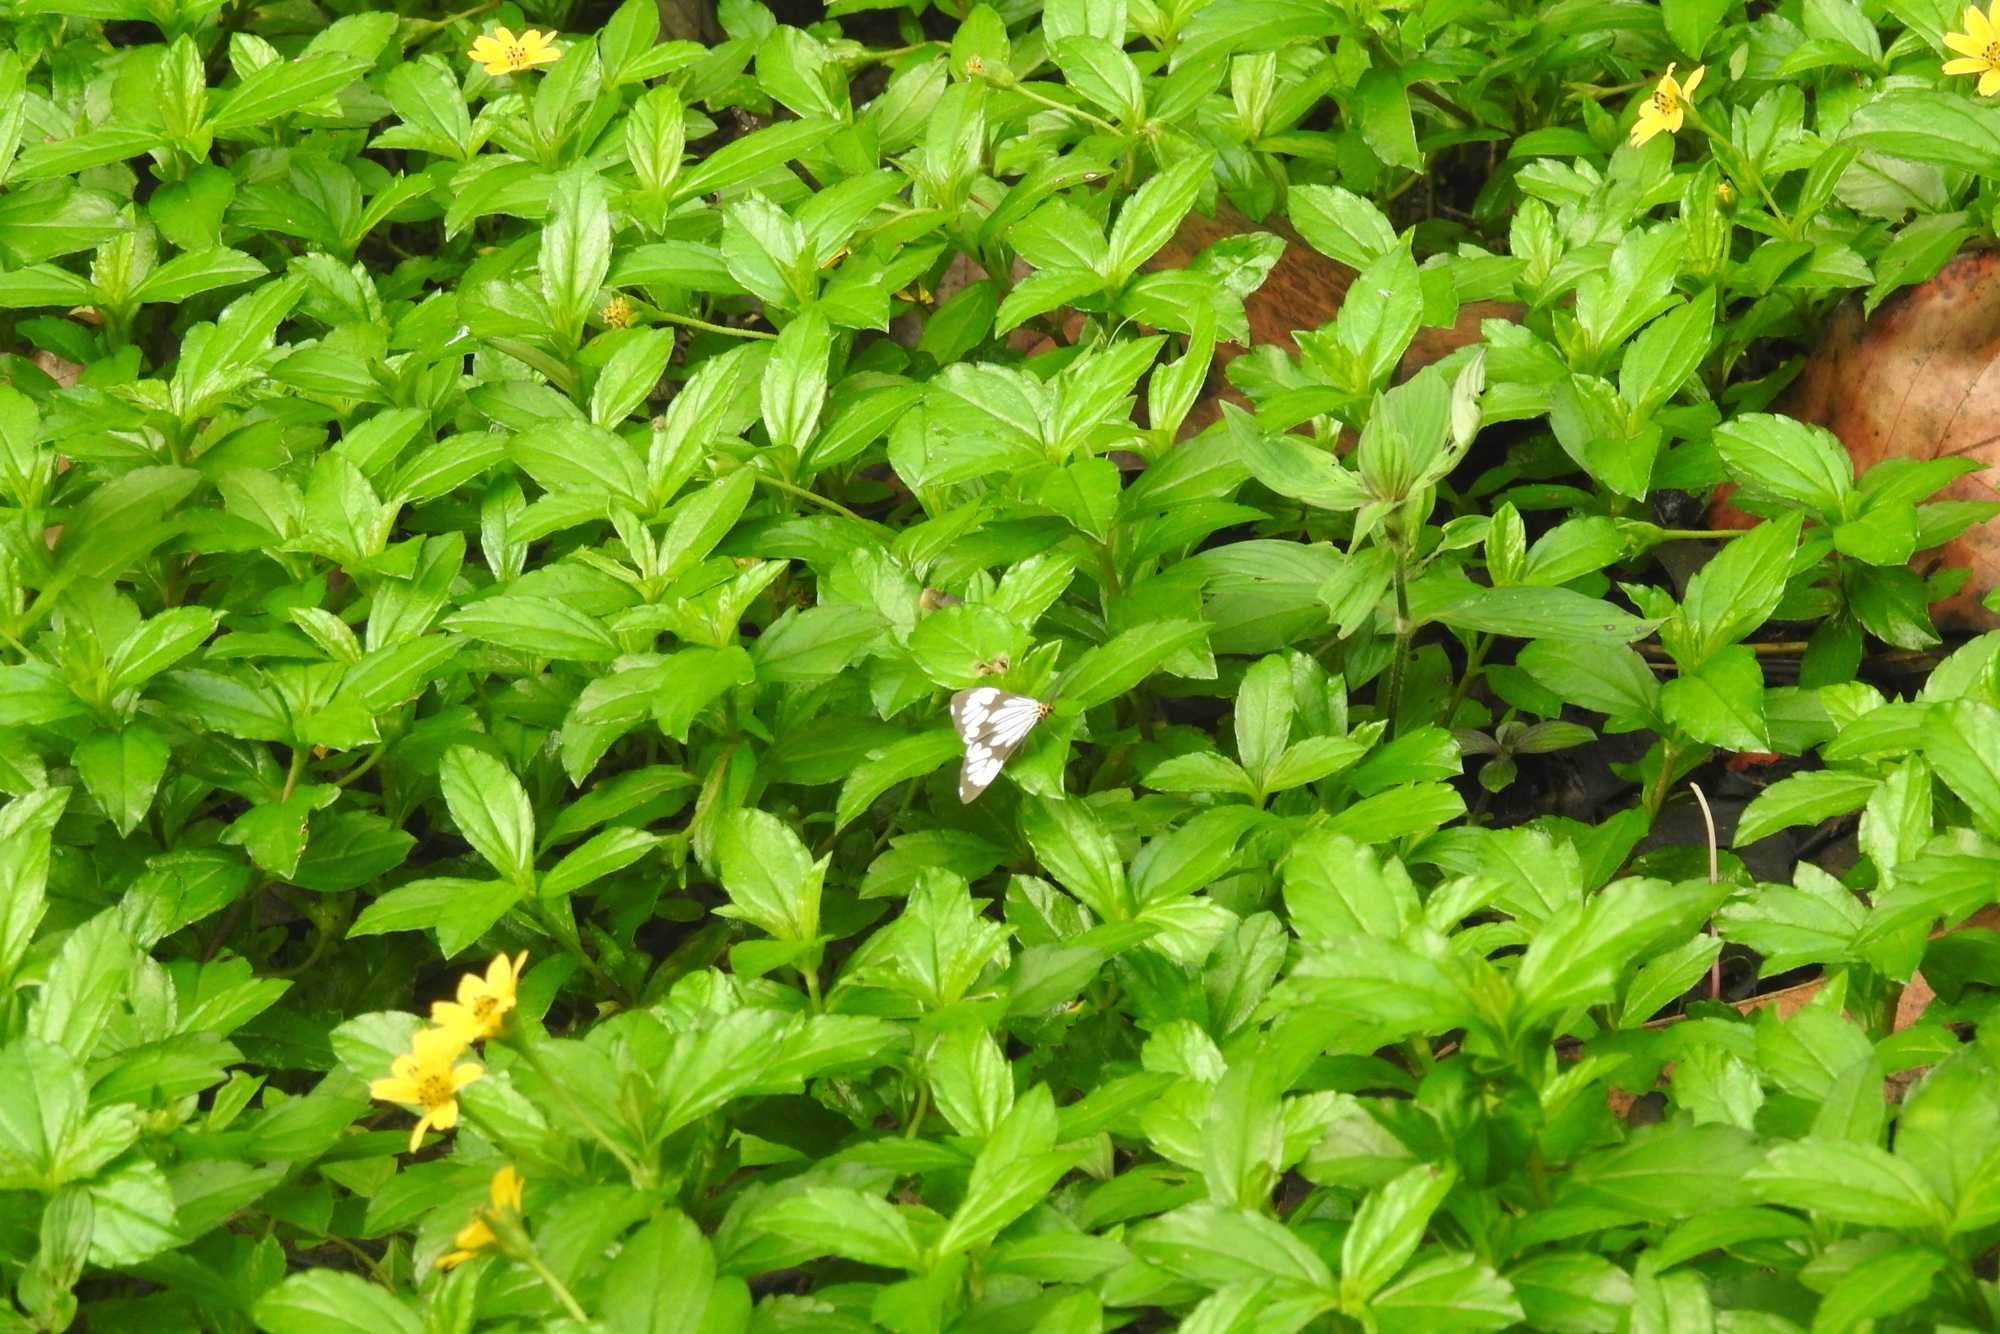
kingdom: Animalia
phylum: Arthropoda
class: Insecta
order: Lepidoptera
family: Erebidae
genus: Nyctemera
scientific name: Nyctemera coleta
